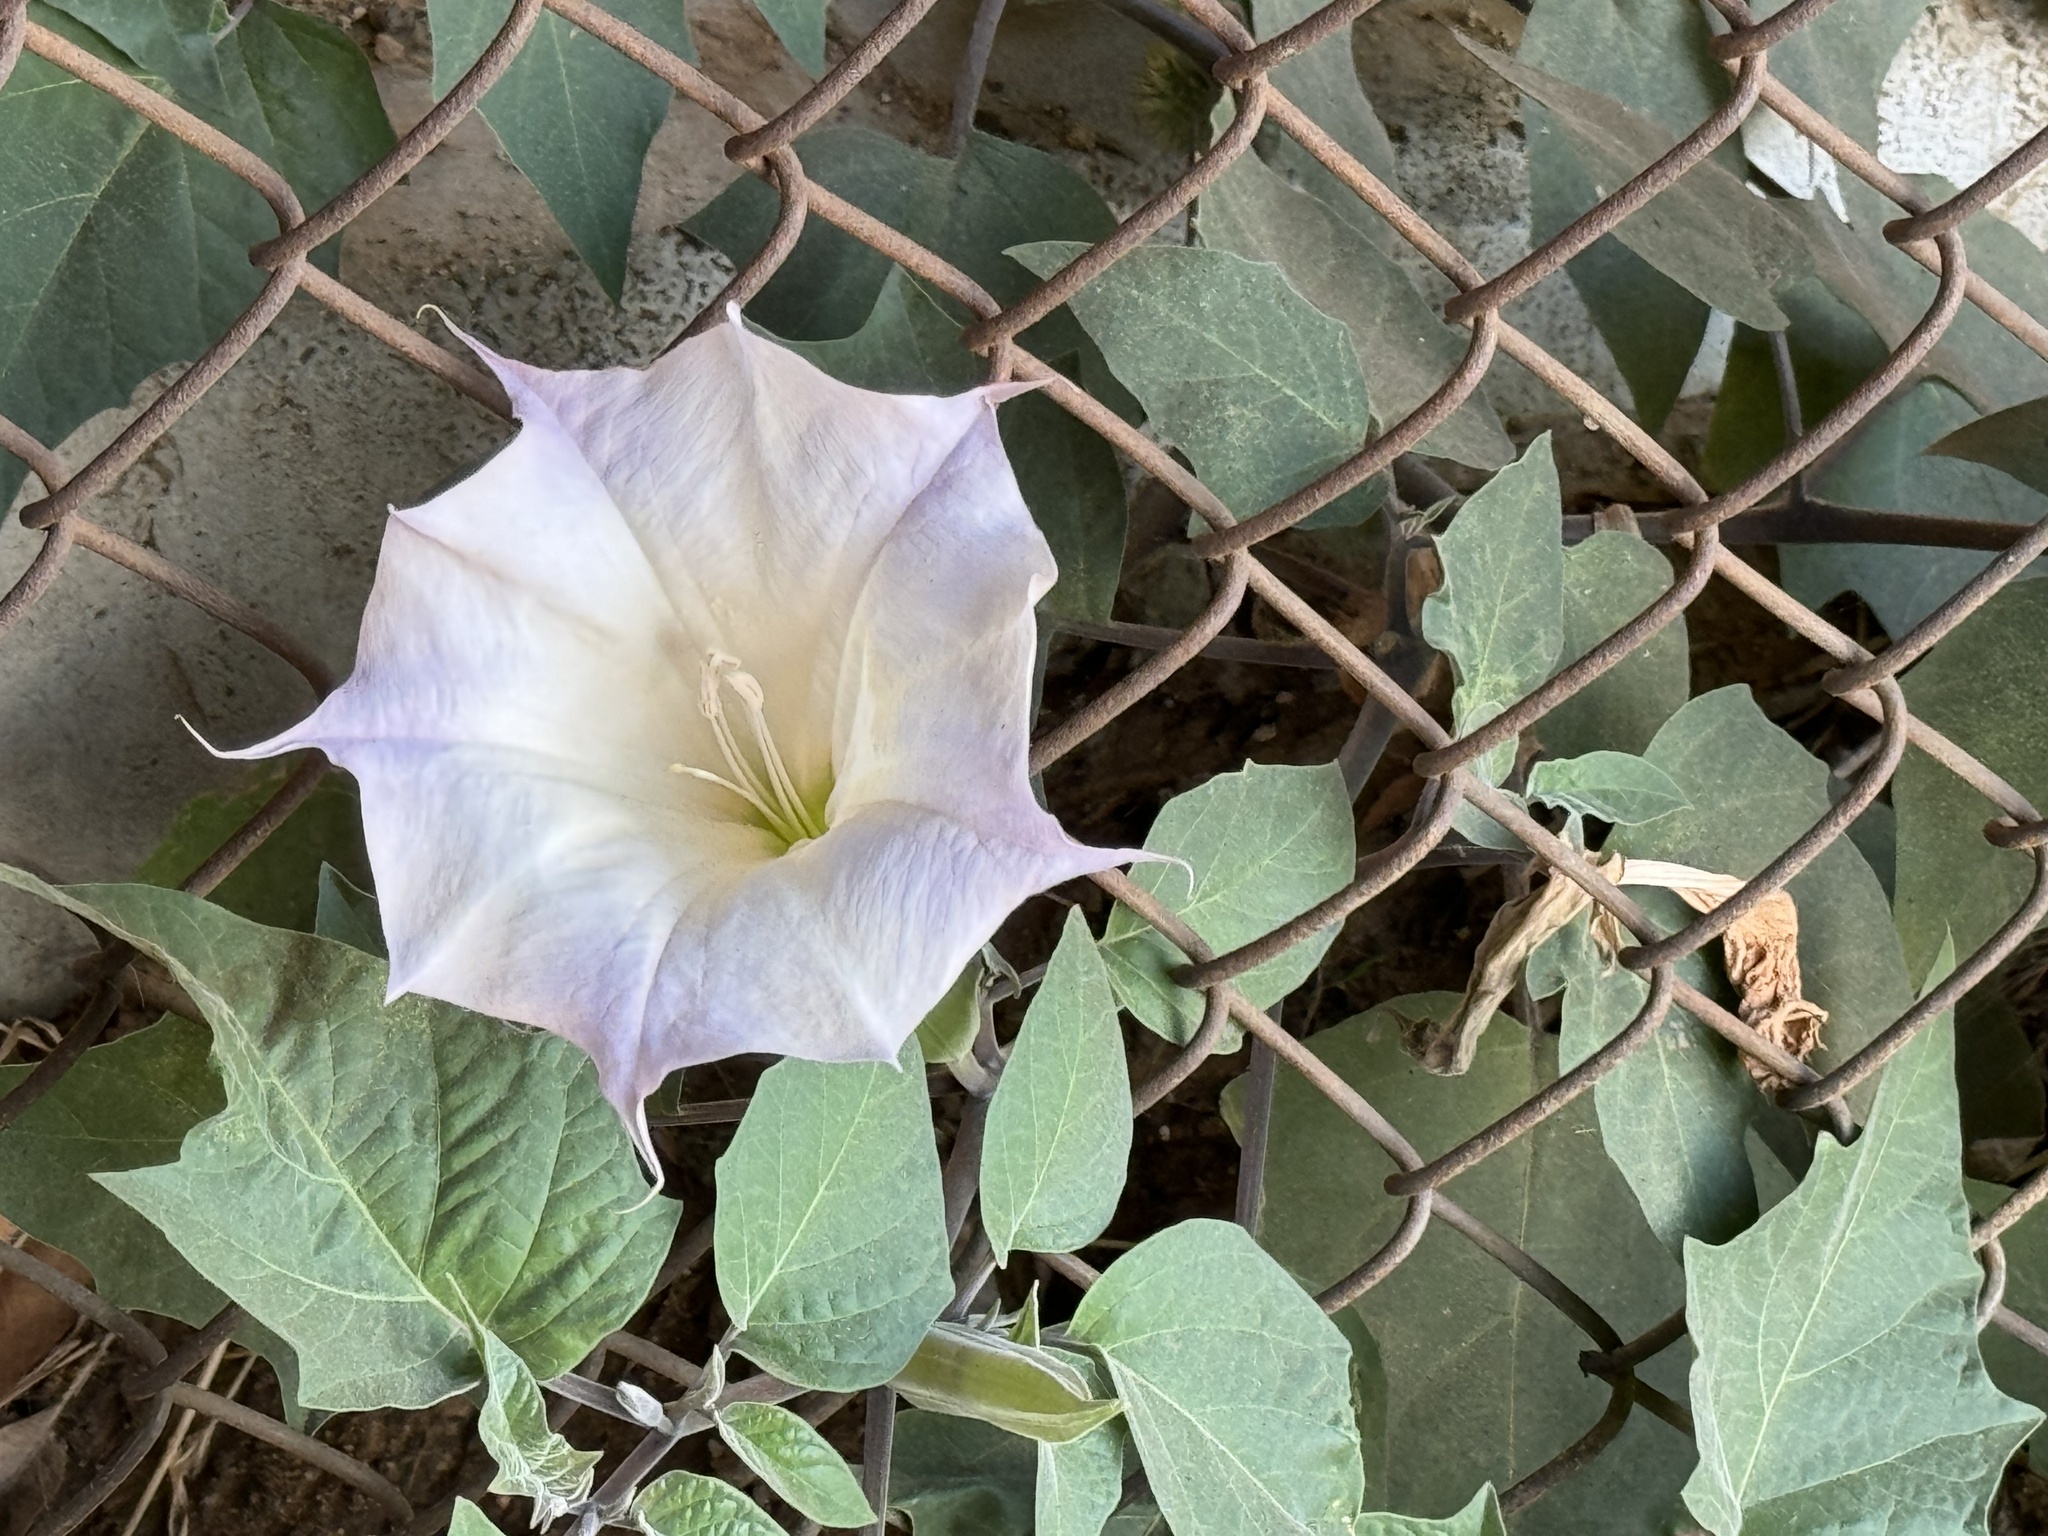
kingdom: Plantae
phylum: Tracheophyta
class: Magnoliopsida
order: Solanales
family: Solanaceae
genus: Datura
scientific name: Datura wrightii
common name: Sacred thorn-apple
